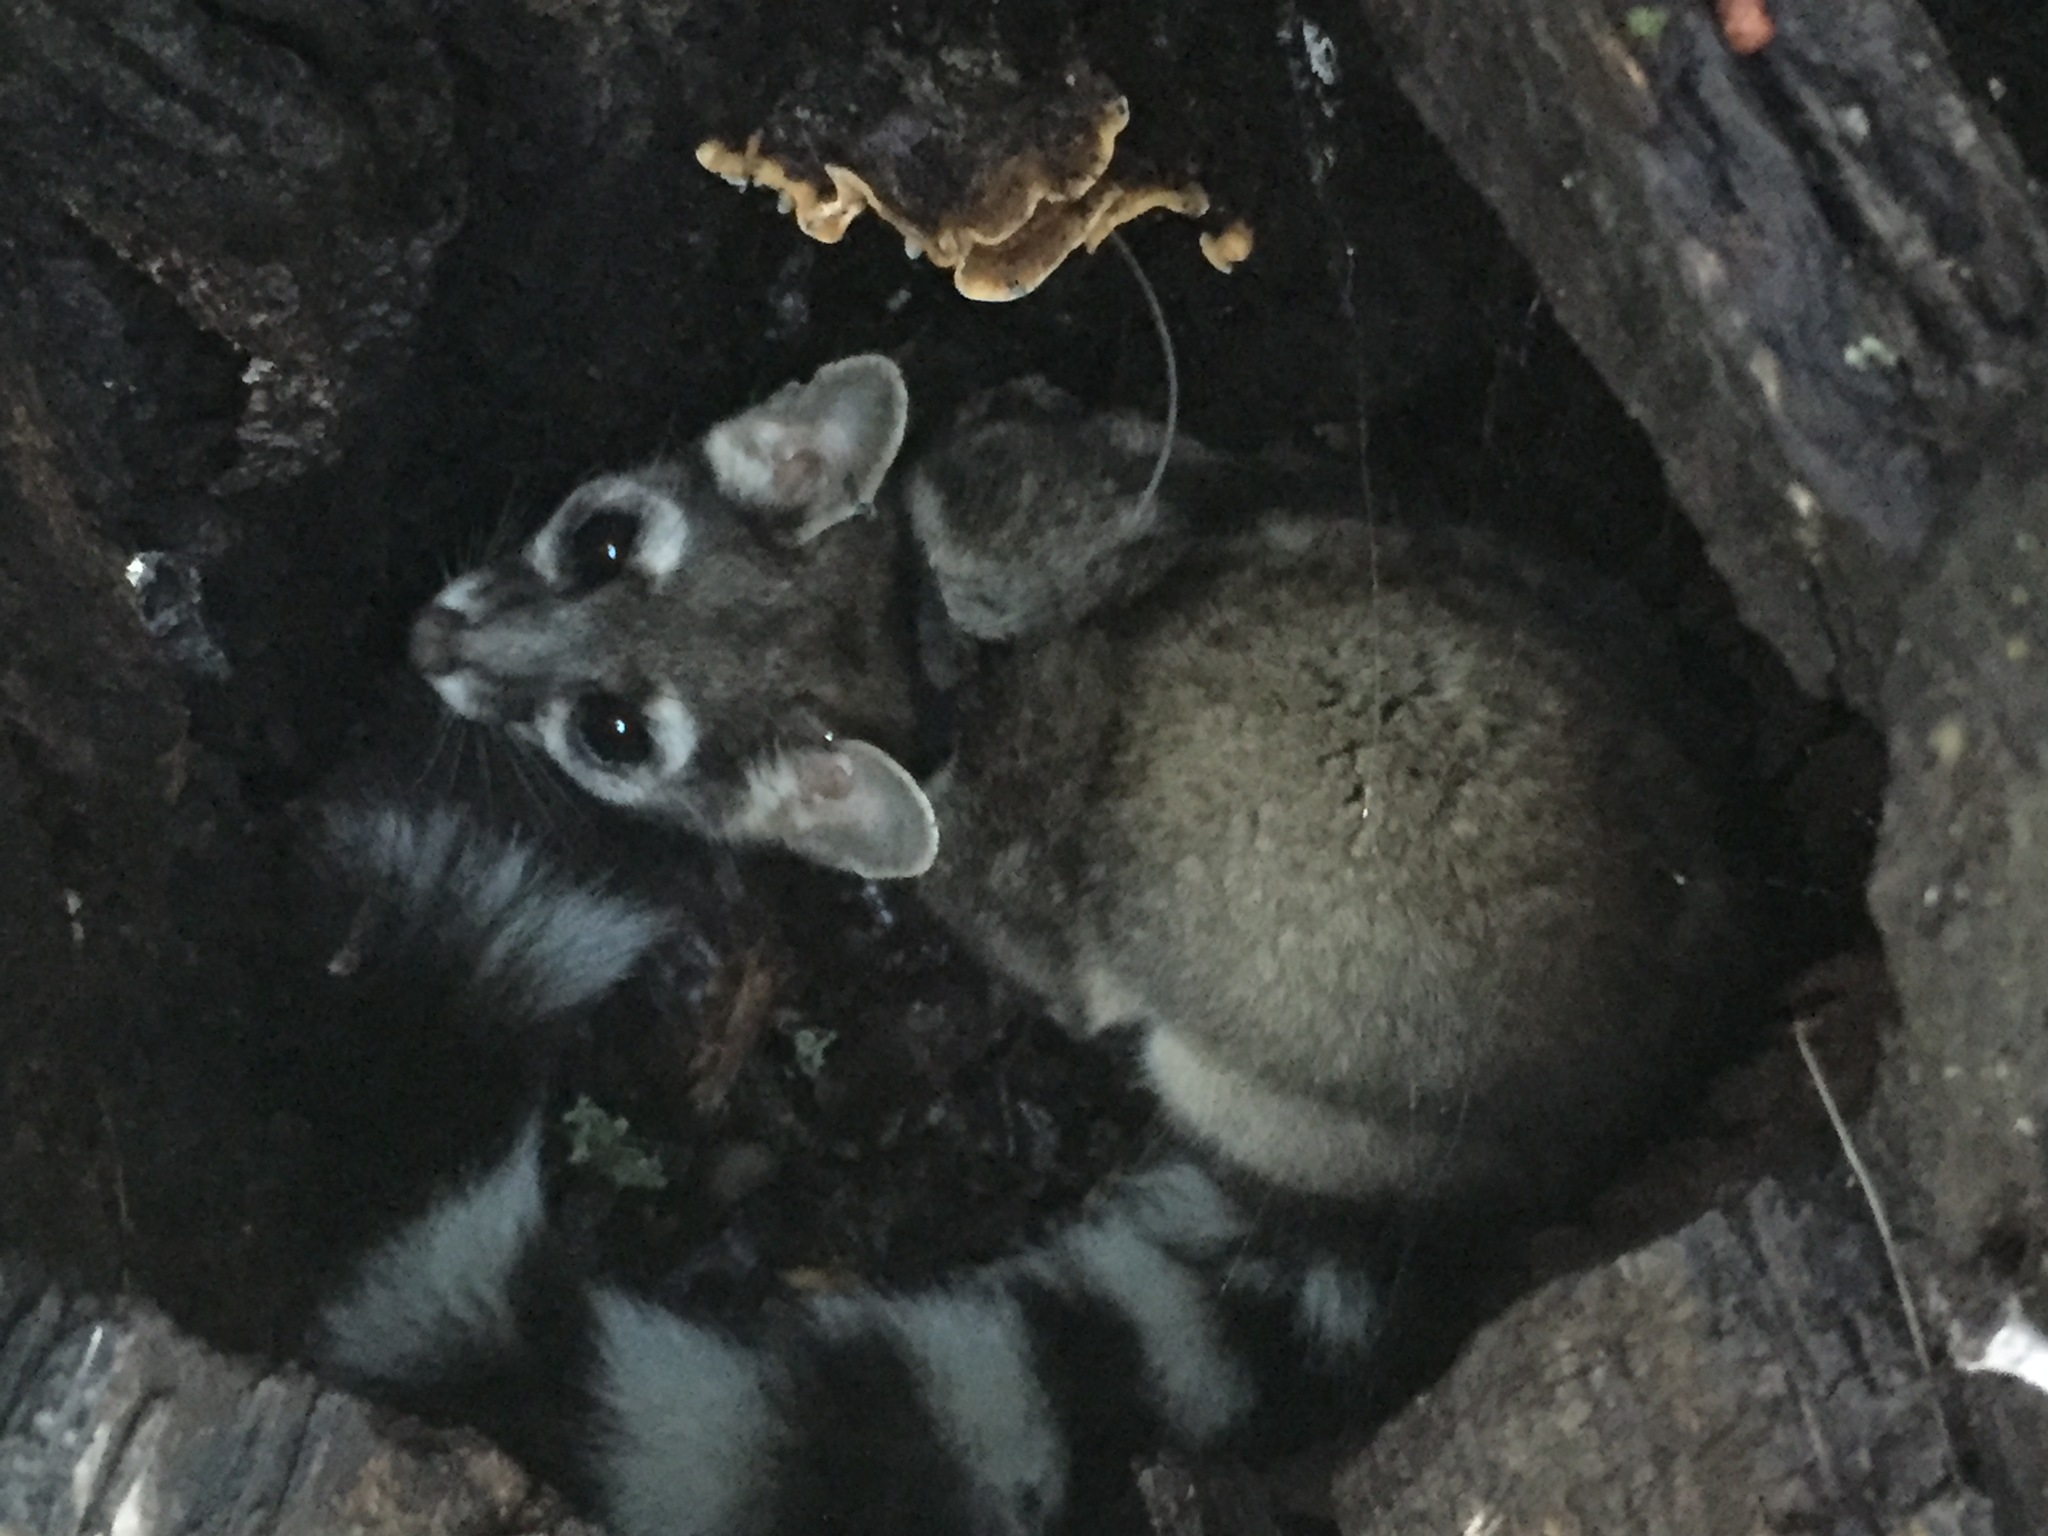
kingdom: Animalia
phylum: Chordata
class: Mammalia
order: Carnivora
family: Procyonidae
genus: Bassariscus
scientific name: Bassariscus astutus
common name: Ringtail
